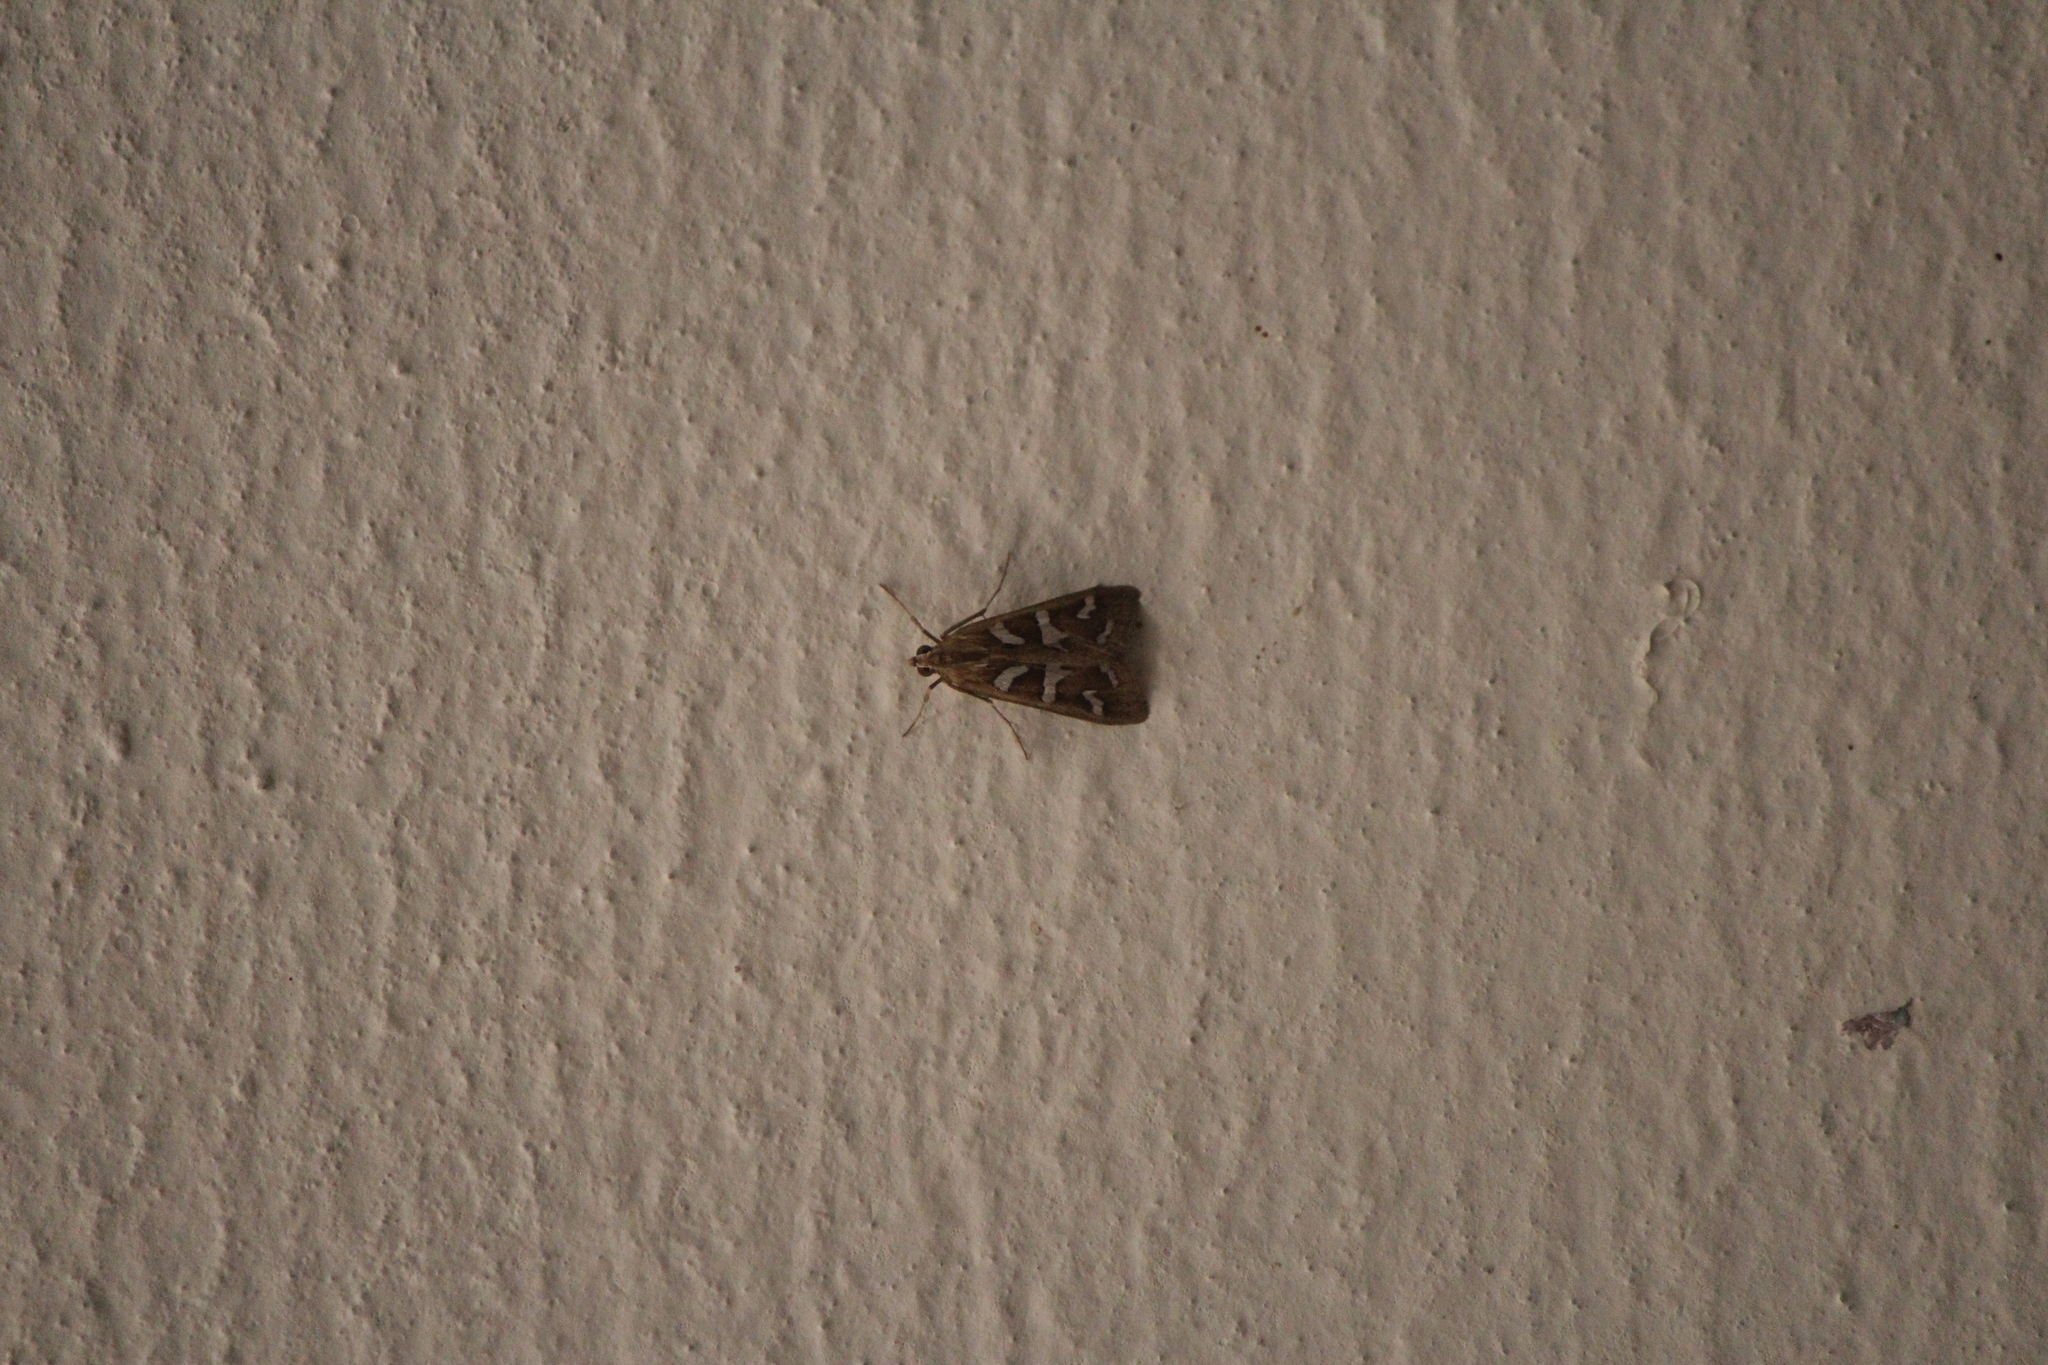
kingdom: Animalia
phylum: Arthropoda
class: Insecta
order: Lepidoptera
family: Crambidae
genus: Diastictis
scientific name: Diastictis fracturalis
